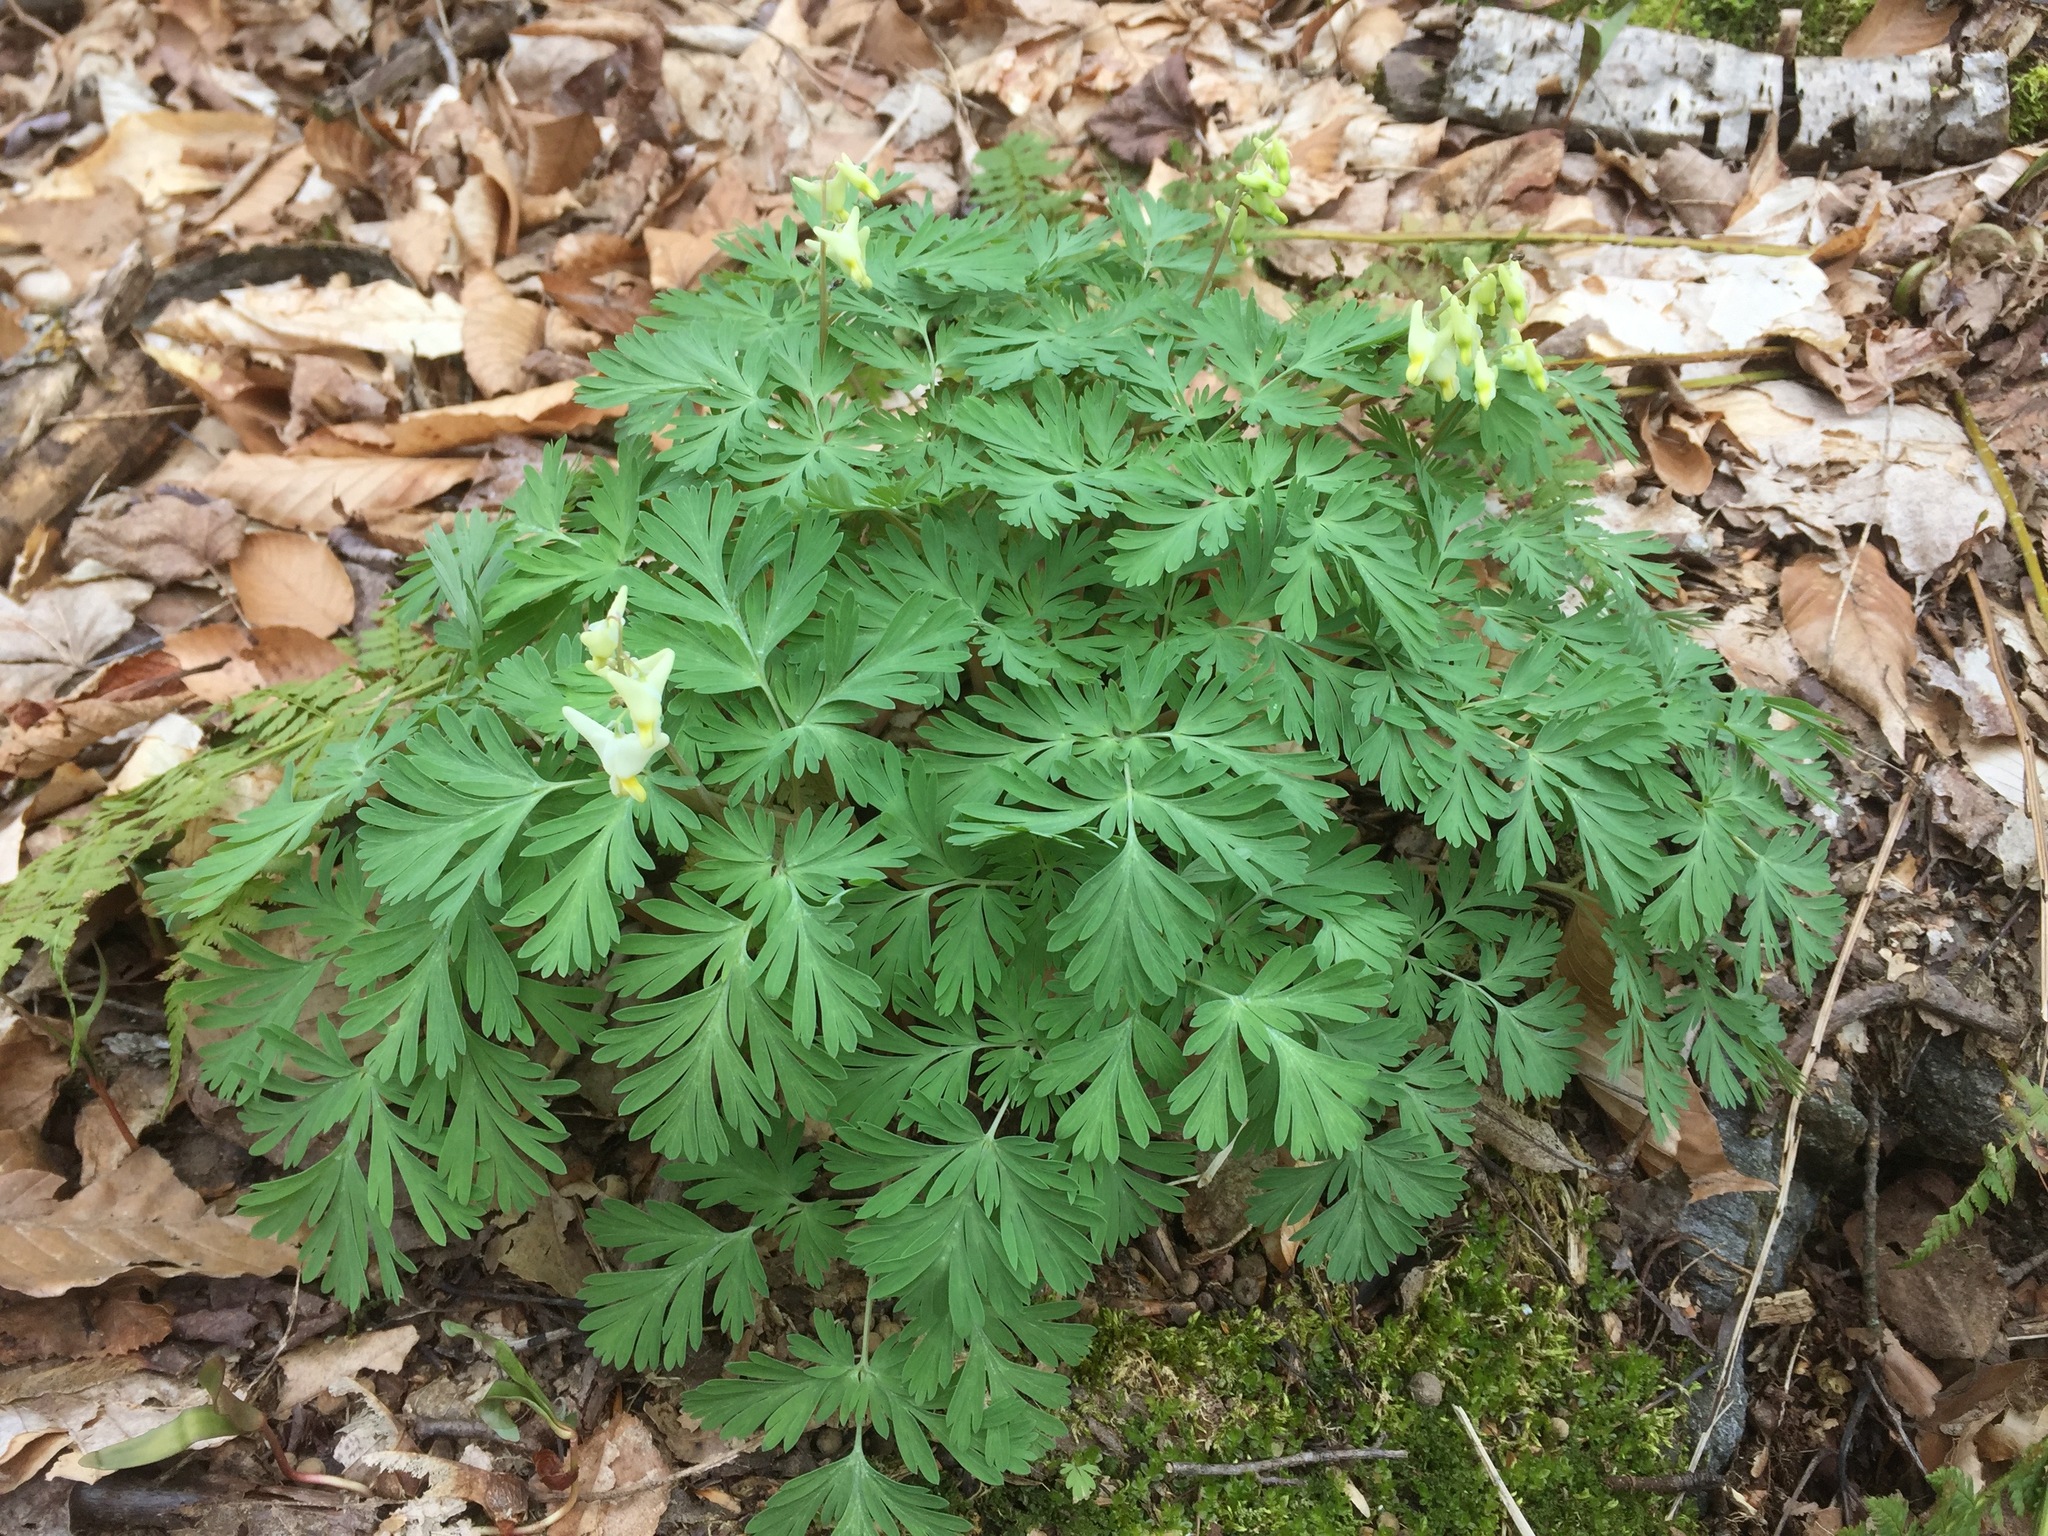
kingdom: Plantae
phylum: Tracheophyta
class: Magnoliopsida
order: Ranunculales
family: Papaveraceae
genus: Dicentra
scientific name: Dicentra cucullaria
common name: Dutchman's breeches
